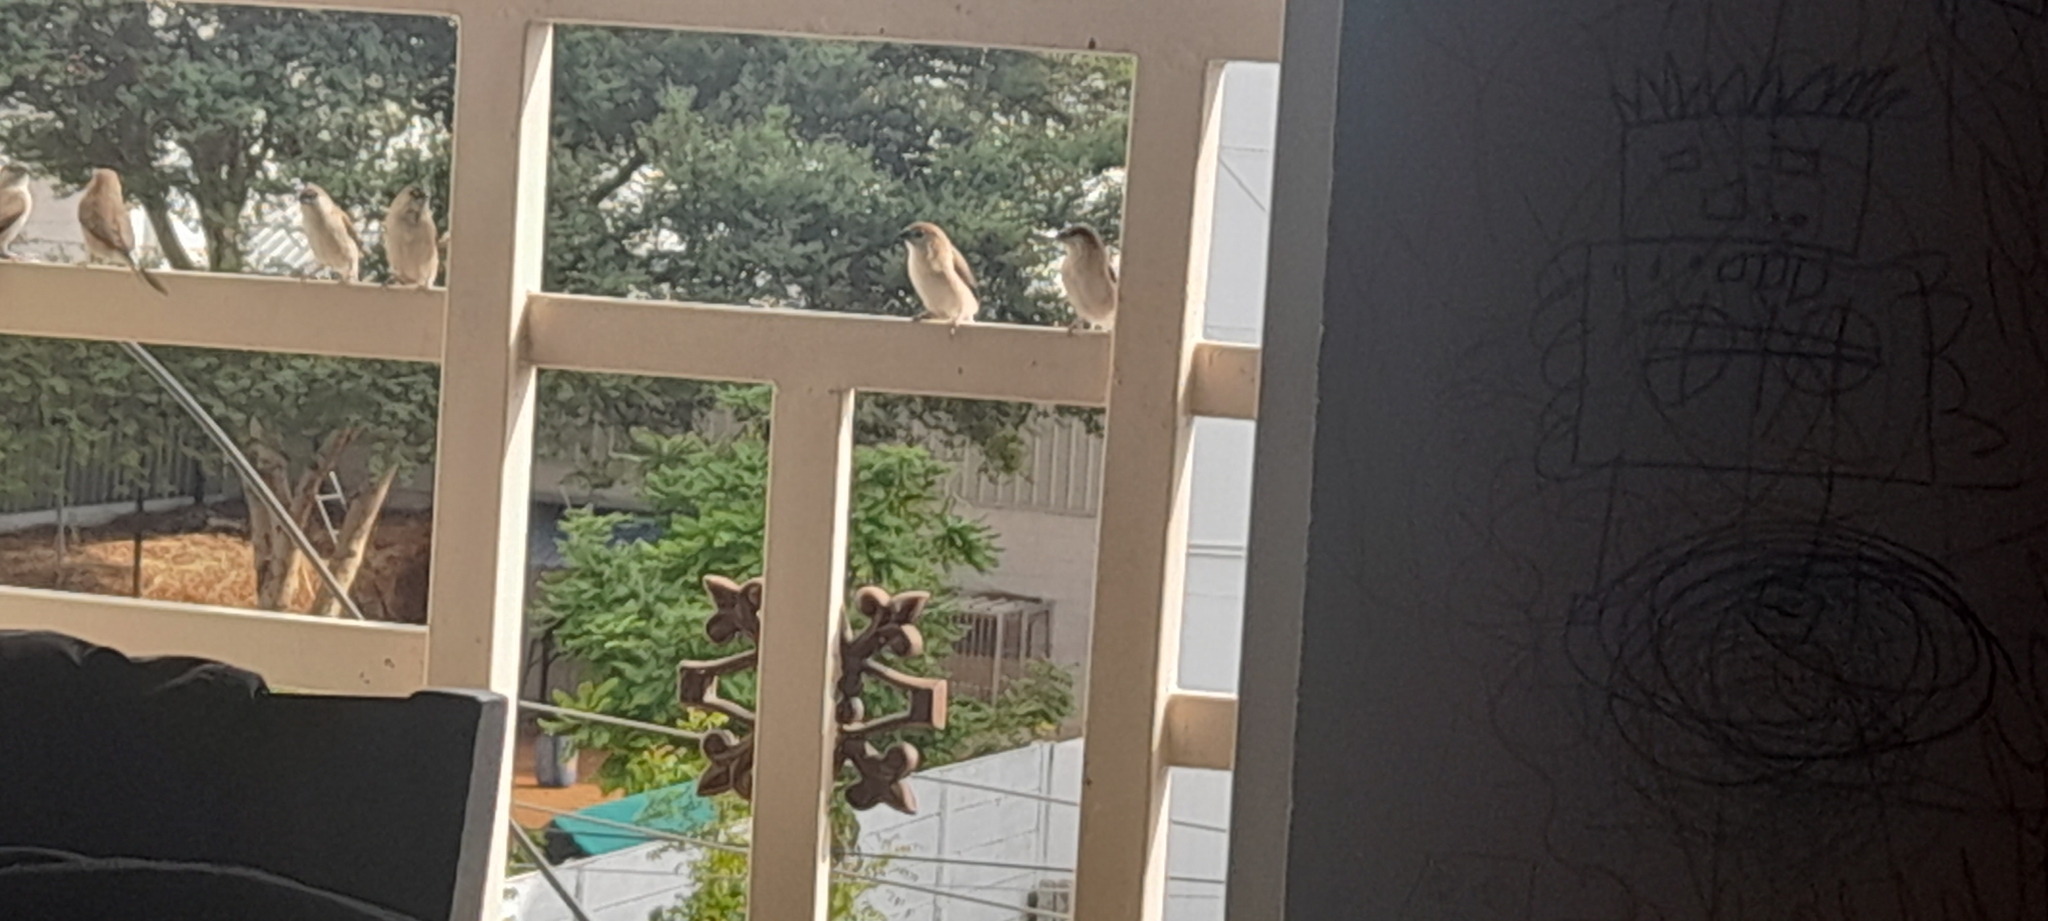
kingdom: Animalia
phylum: Chordata
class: Aves
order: Passeriformes
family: Estrildidae
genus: Euodice
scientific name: Euodice malabarica
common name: Indian silverbill
